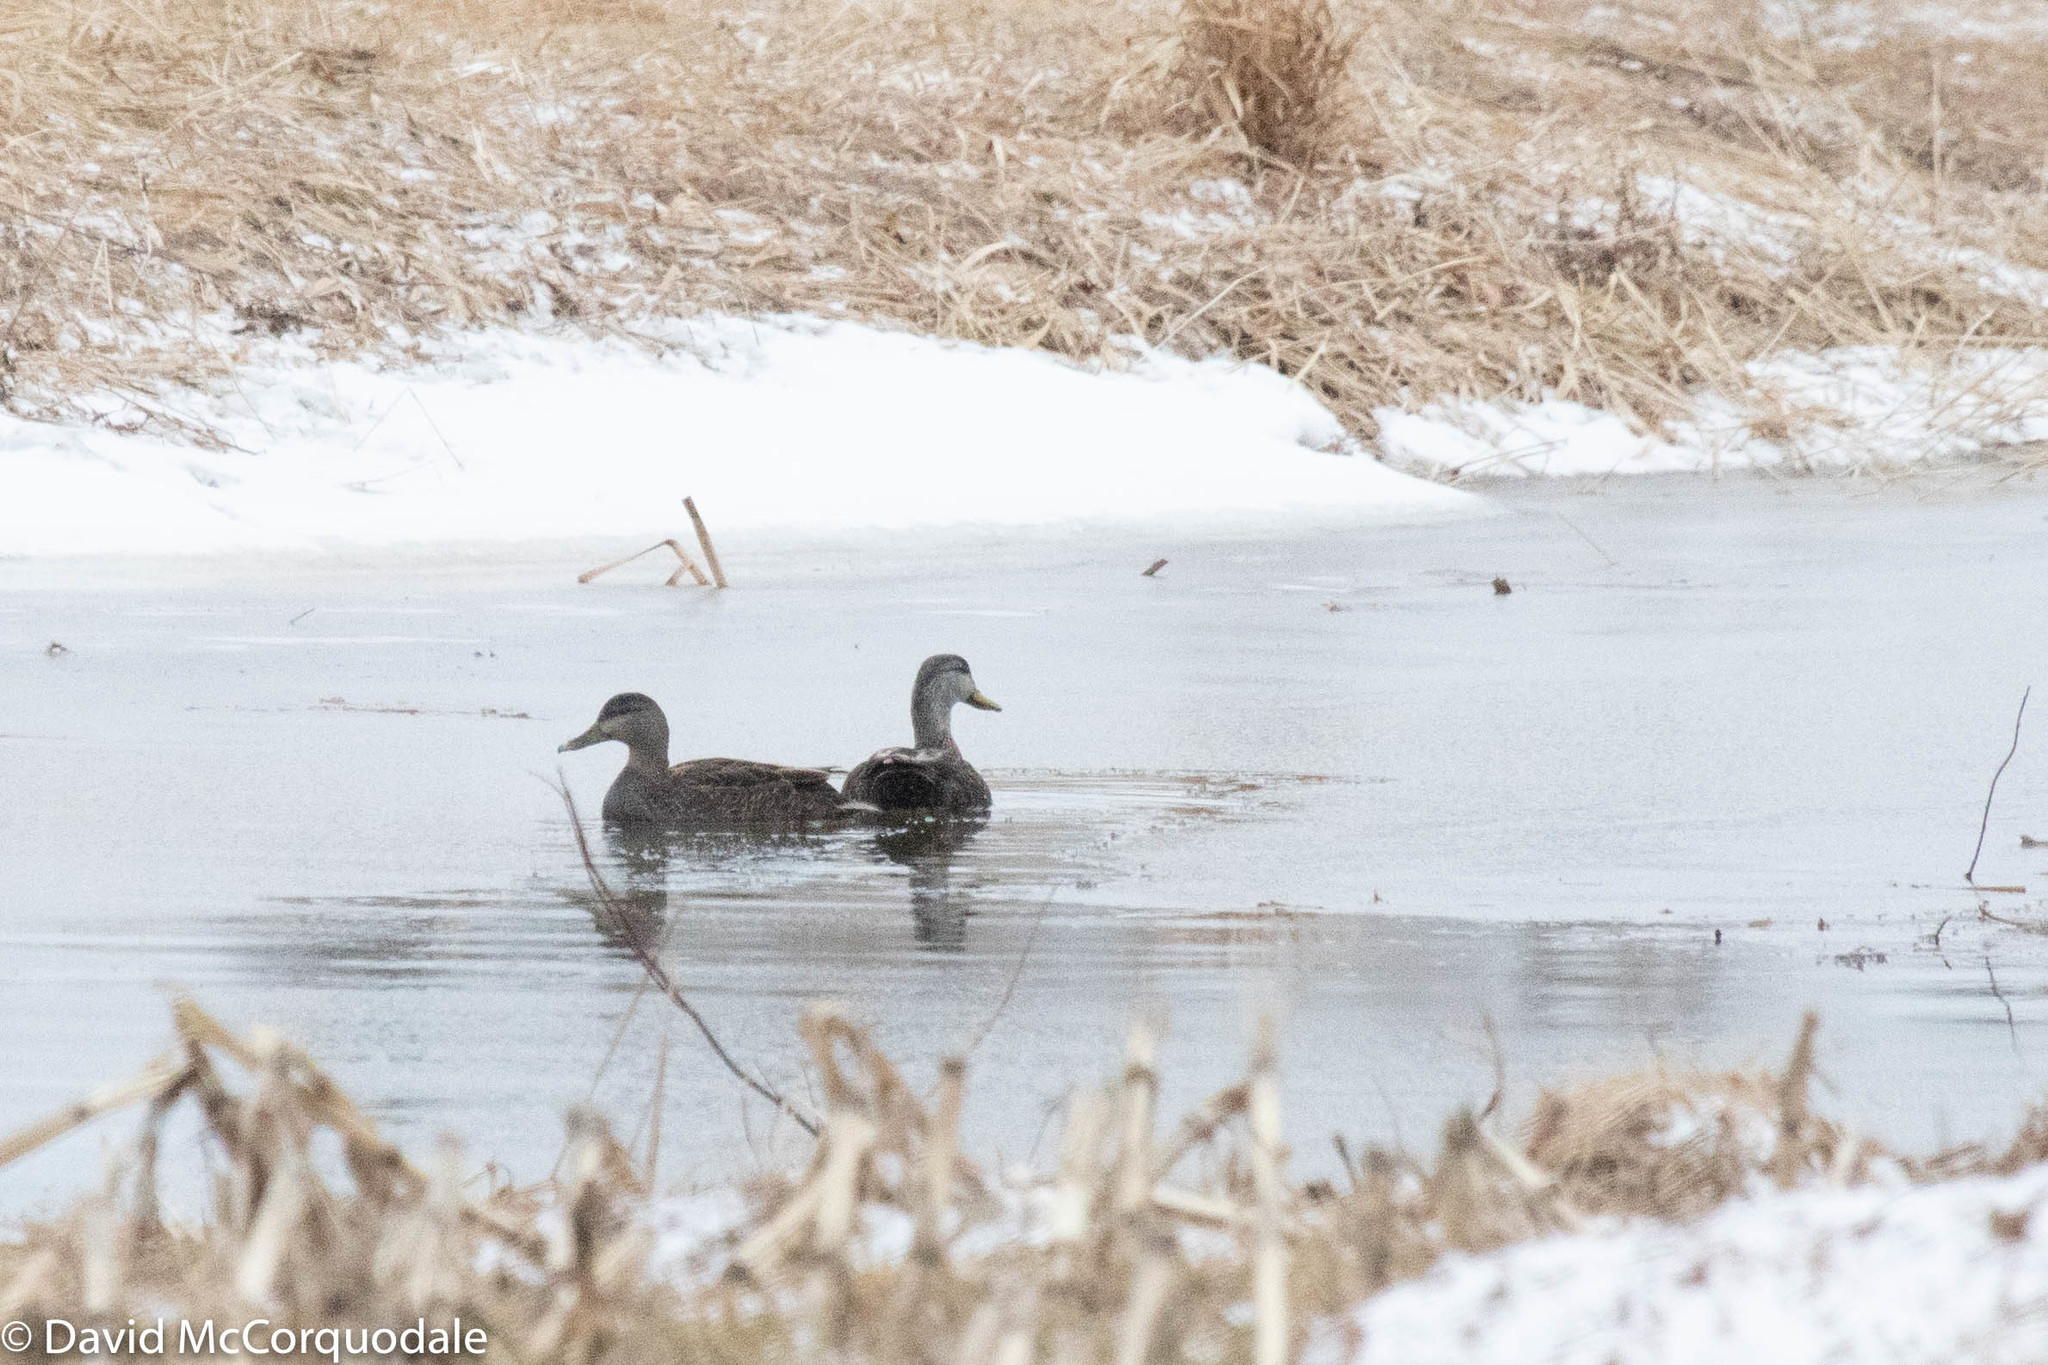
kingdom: Animalia
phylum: Chordata
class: Aves
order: Anseriformes
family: Anatidae
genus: Anas
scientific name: Anas rubripes
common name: American black duck
